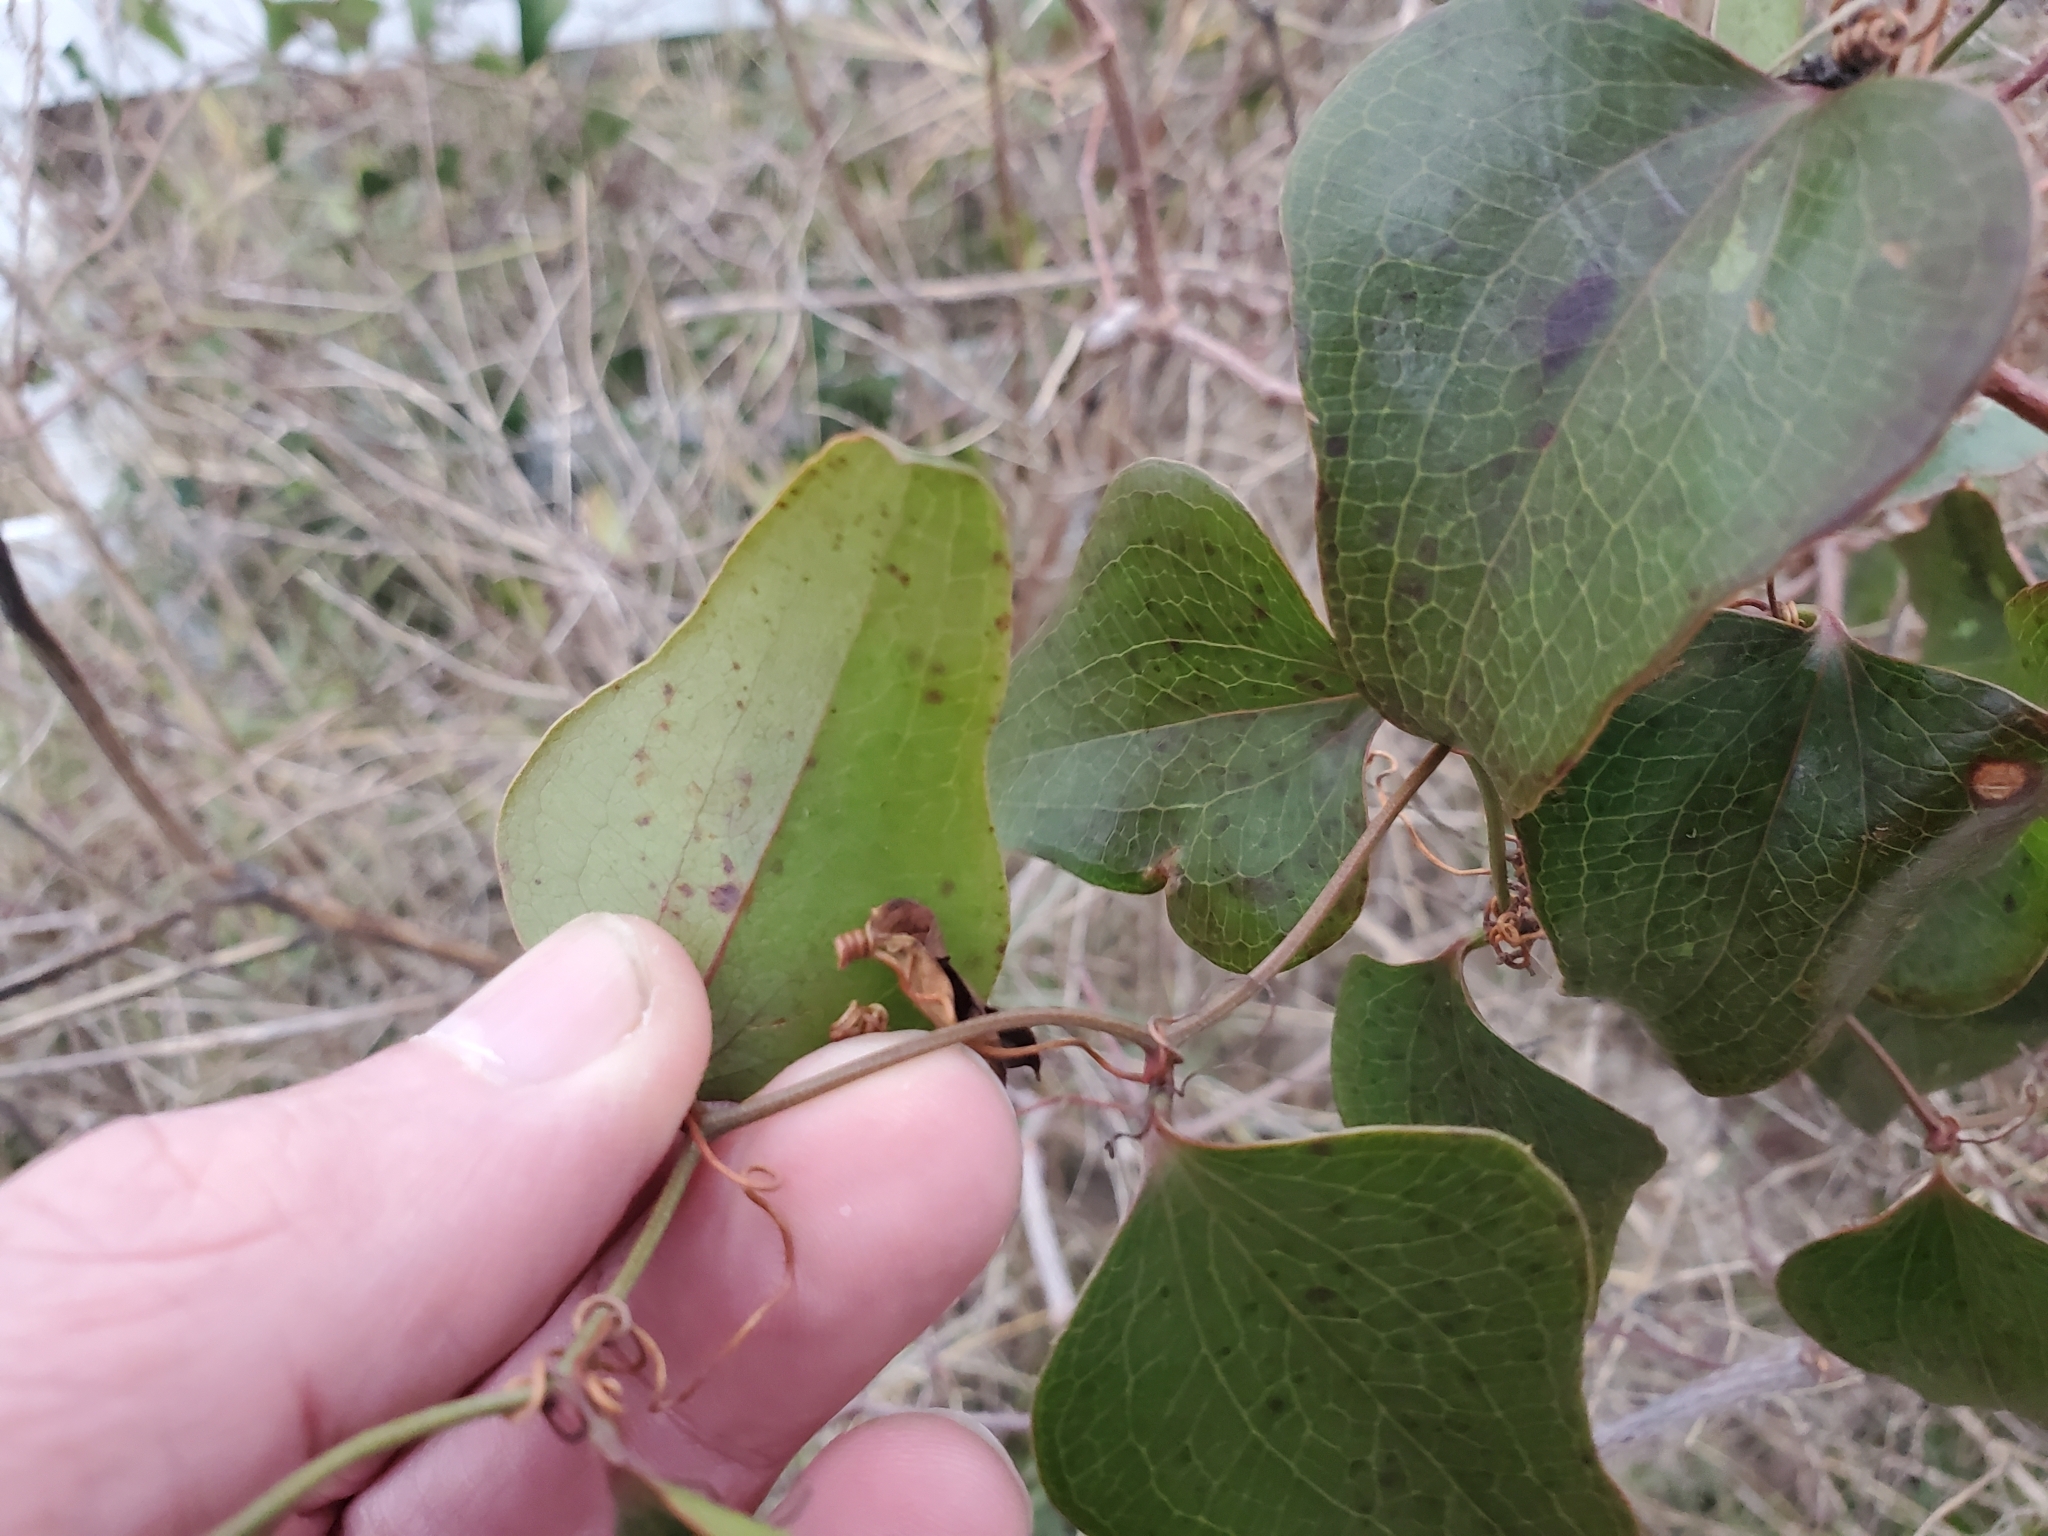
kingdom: Plantae
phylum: Tracheophyta
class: Liliopsida
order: Liliales
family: Smilacaceae
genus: Smilax
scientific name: Smilax bona-nox
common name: Catbrier
